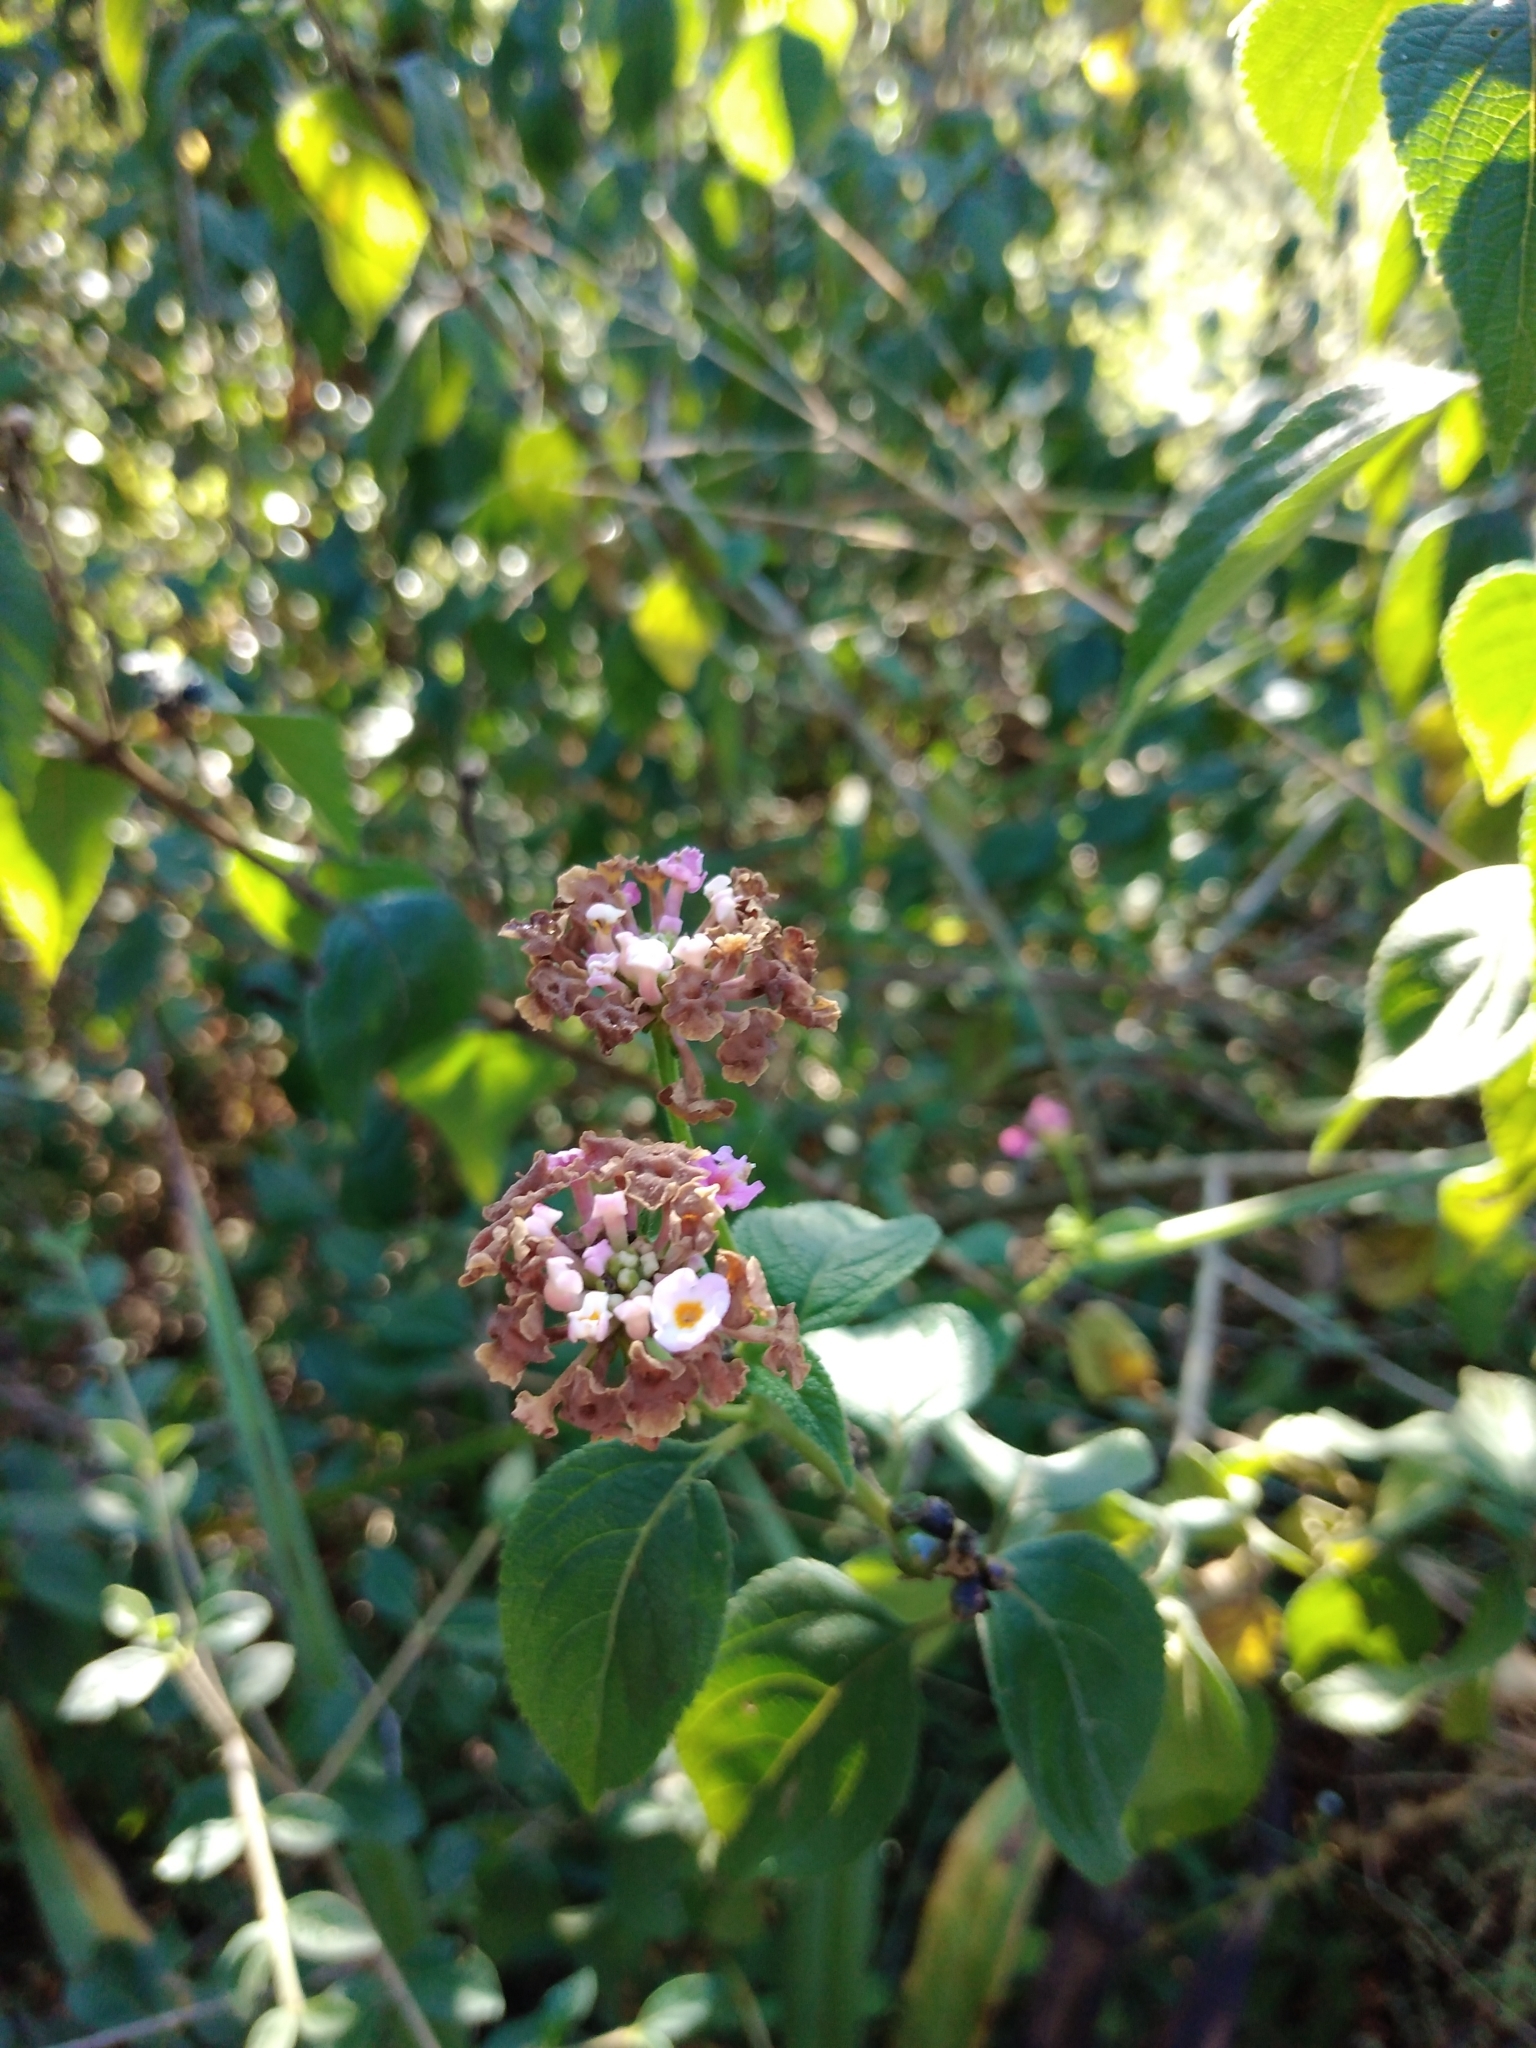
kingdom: Plantae
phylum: Tracheophyta
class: Magnoliopsida
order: Lamiales
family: Verbenaceae
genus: Lantana
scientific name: Lantana camara
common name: Lantana
